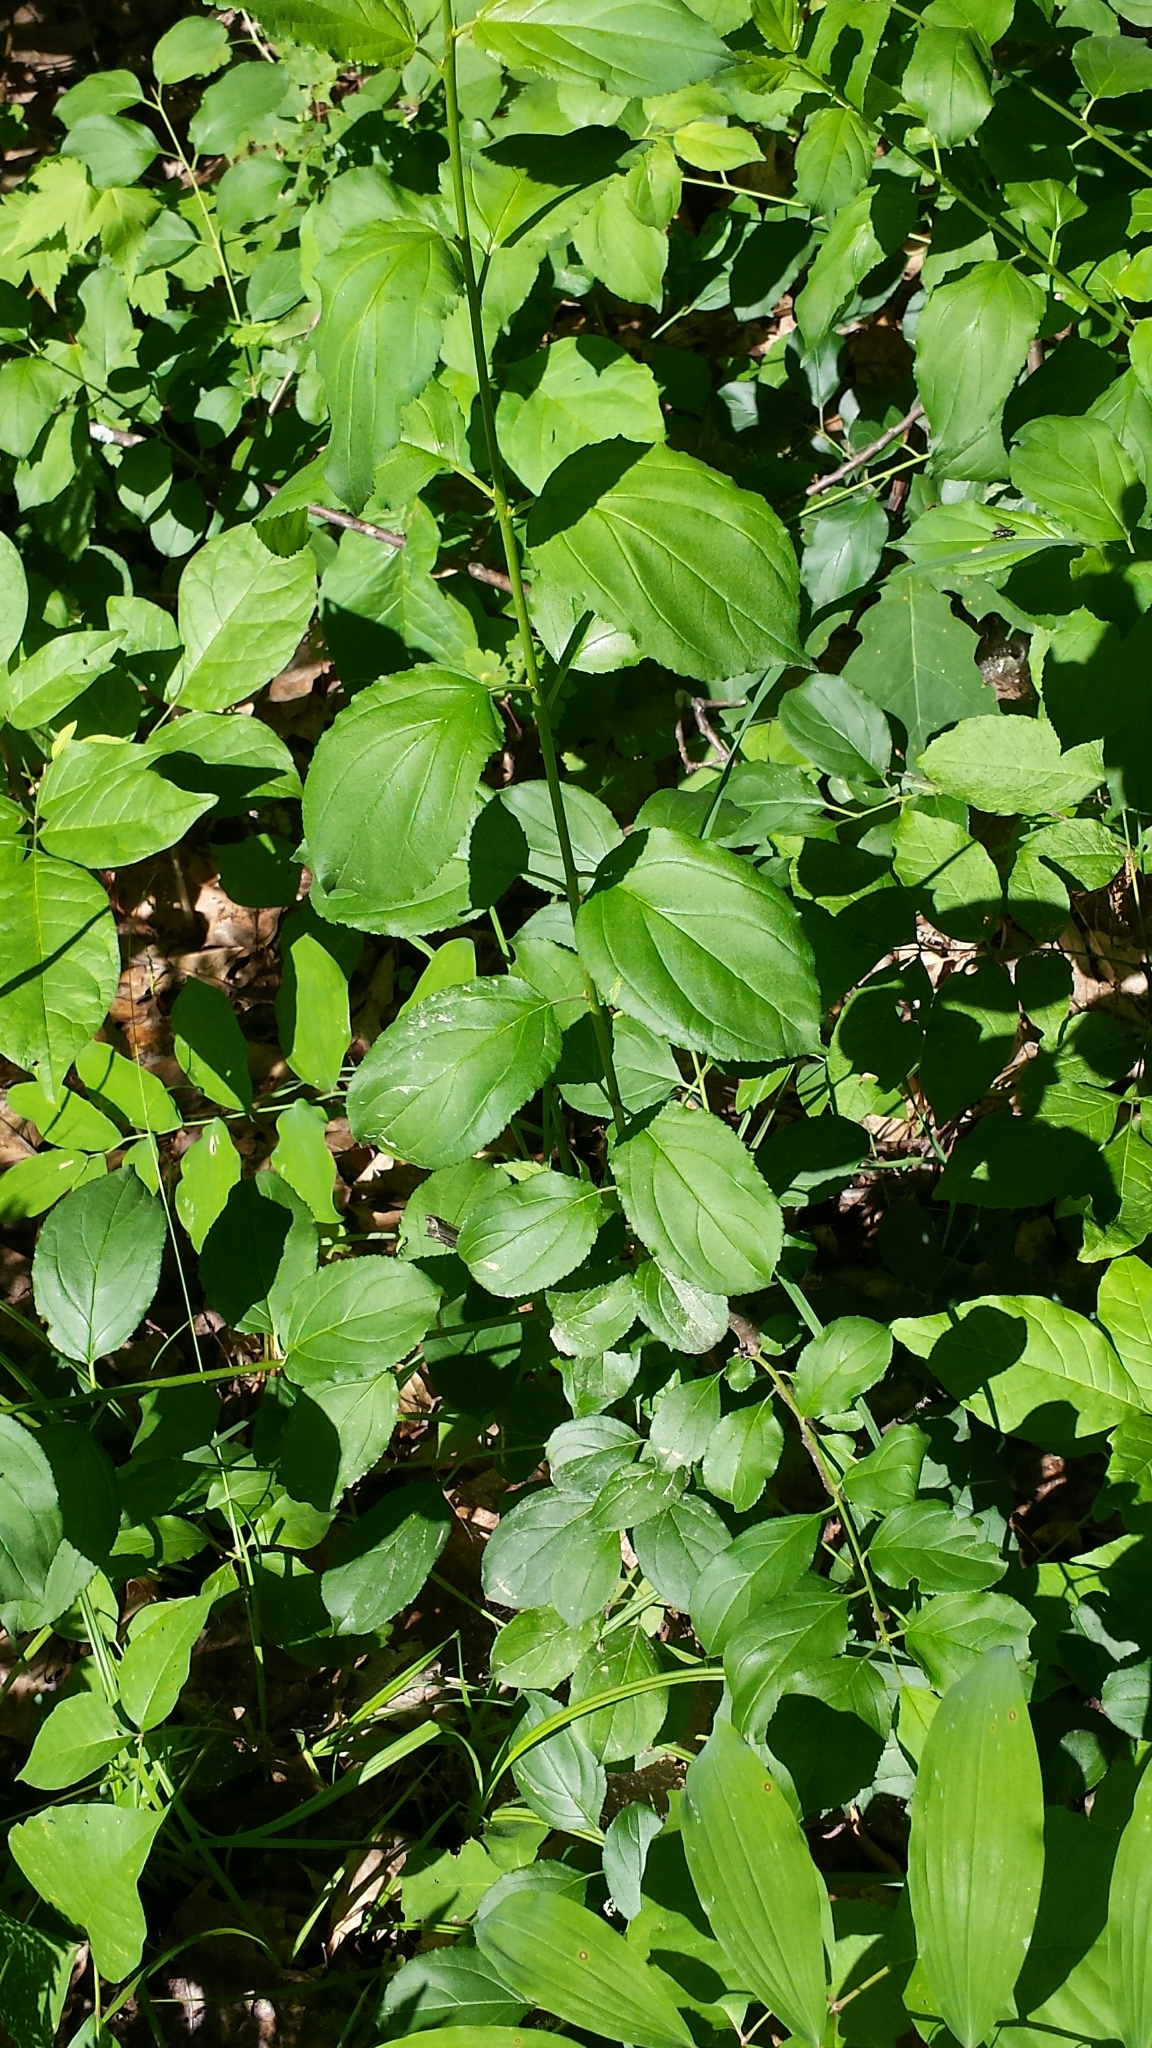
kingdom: Plantae
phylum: Tracheophyta
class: Magnoliopsida
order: Rosales
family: Rhamnaceae
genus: Rhamnus
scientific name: Rhamnus cathartica
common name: Common buckthorn
